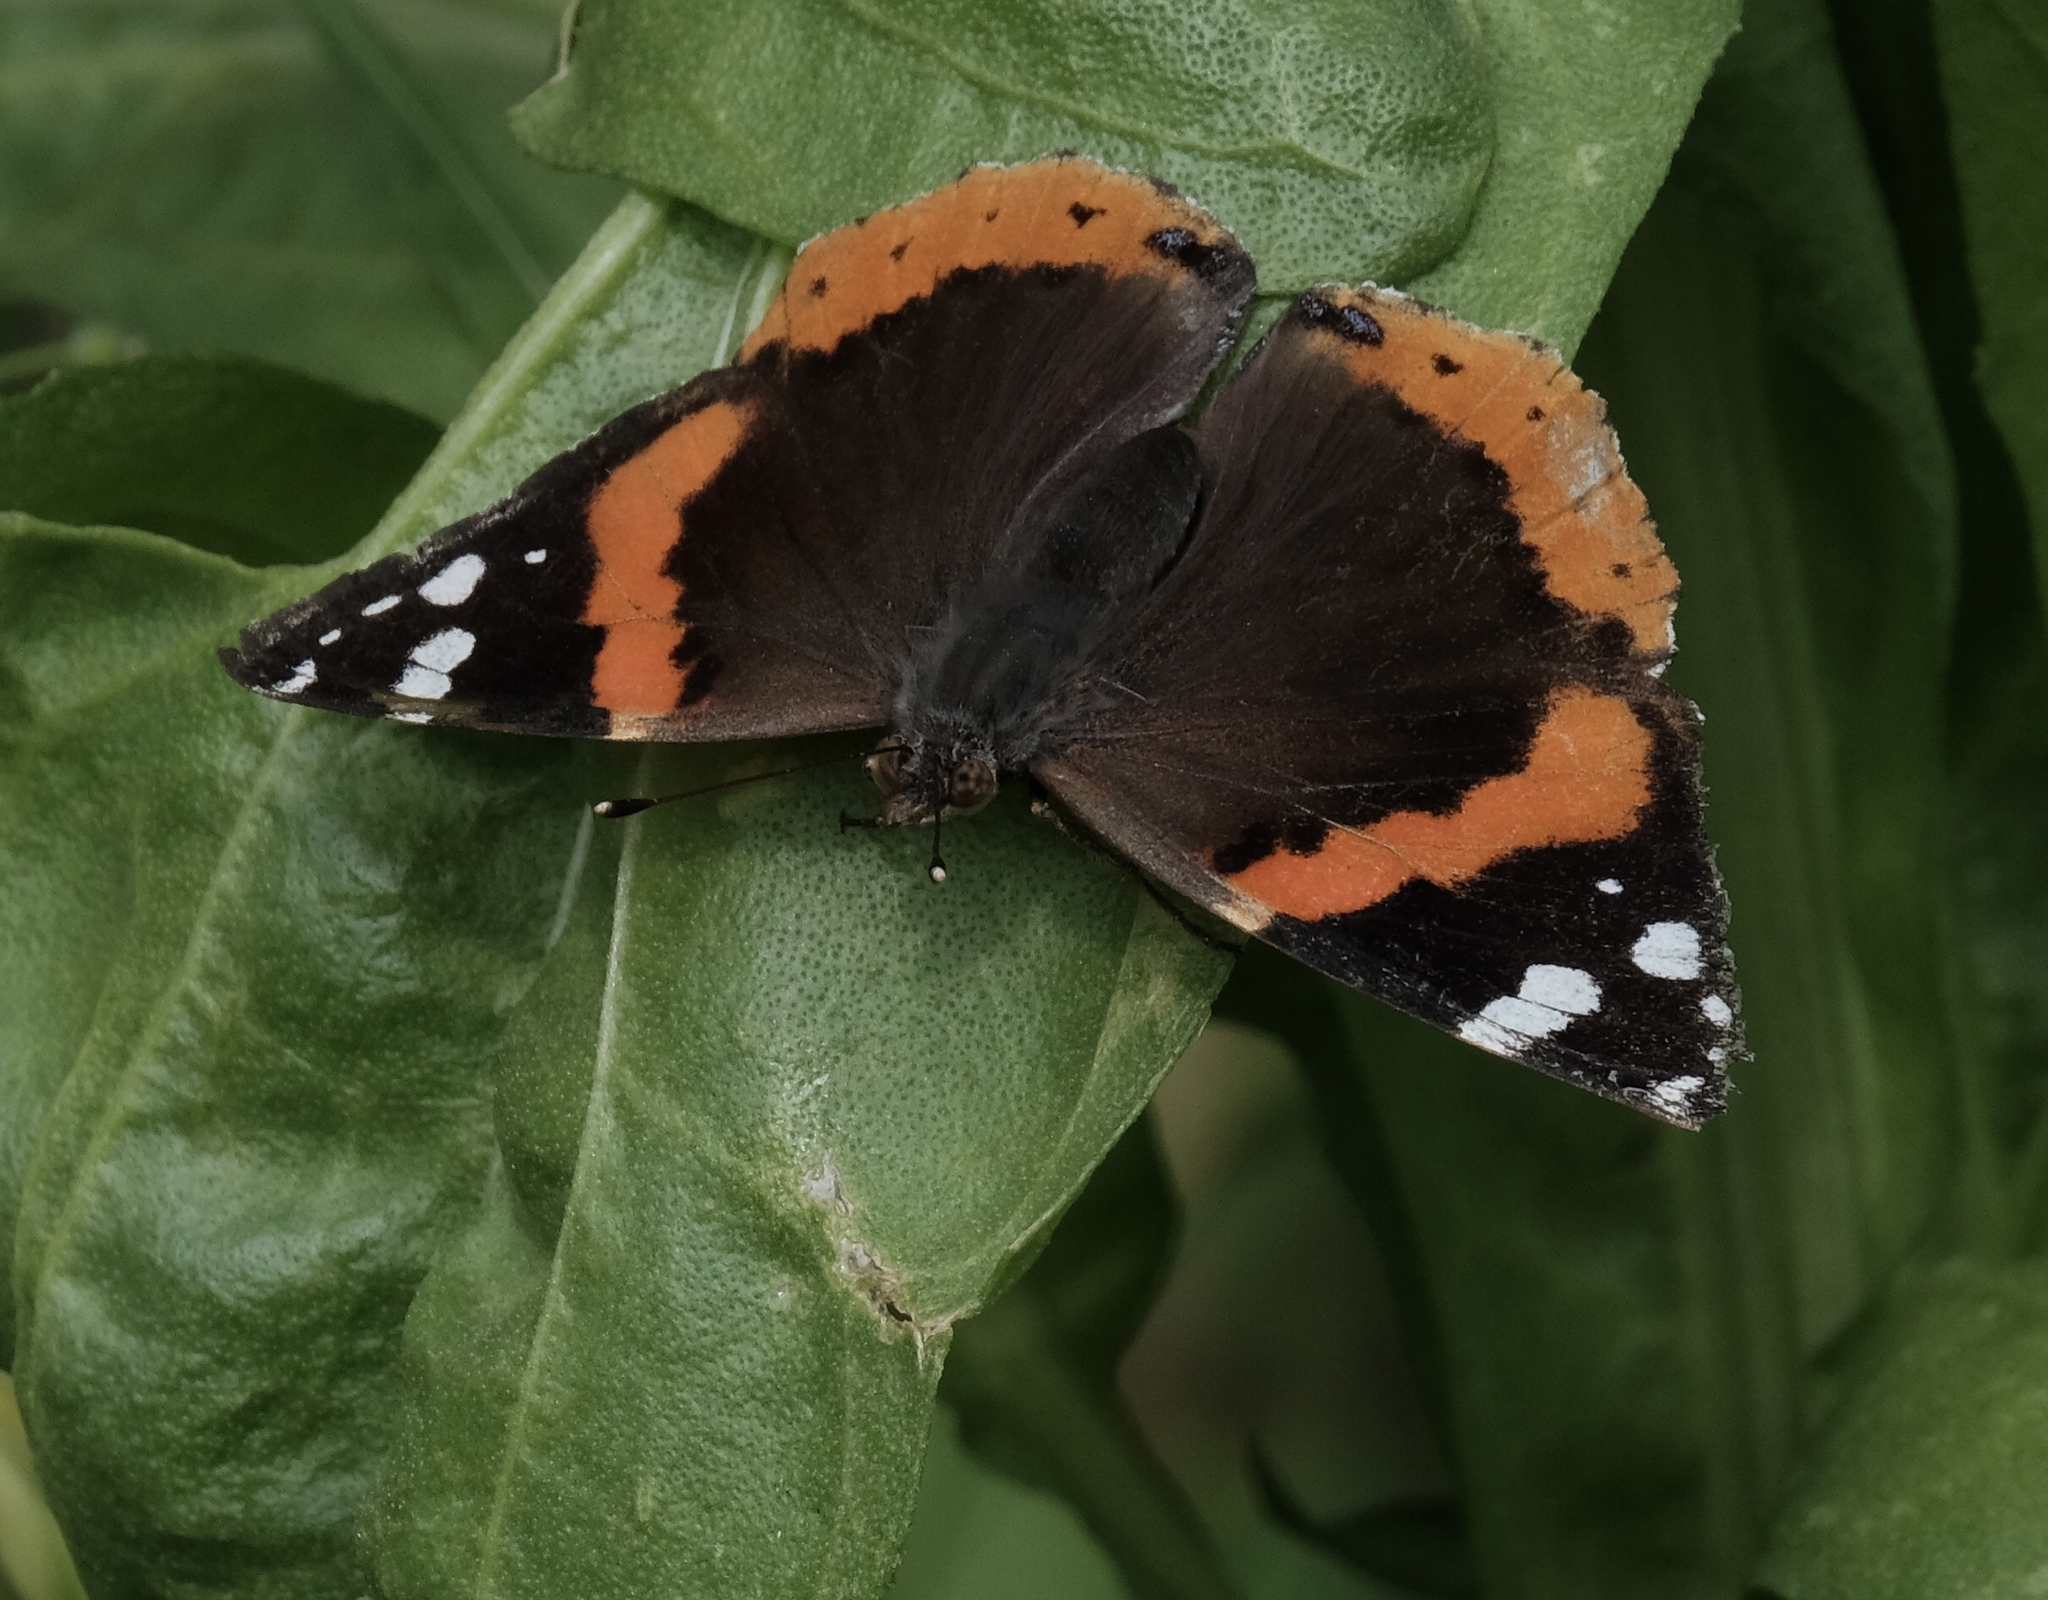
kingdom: Animalia
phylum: Arthropoda
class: Insecta
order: Lepidoptera
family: Nymphalidae
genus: Vanessa
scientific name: Vanessa atalanta
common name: Red admiral
